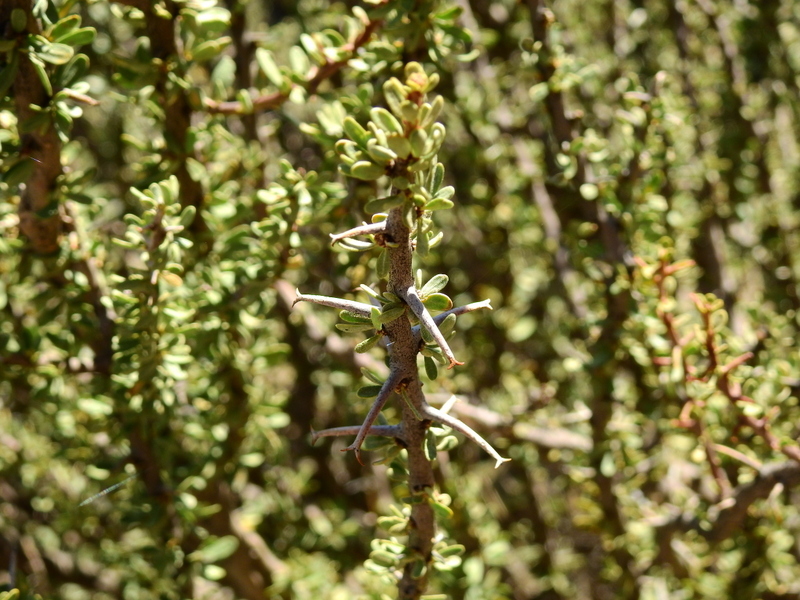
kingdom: Plantae
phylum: Tracheophyta
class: Magnoliopsida
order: Caryophyllales
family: Nyctaginaceae
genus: Bougainvillea
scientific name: Bougainvillea spinosa
